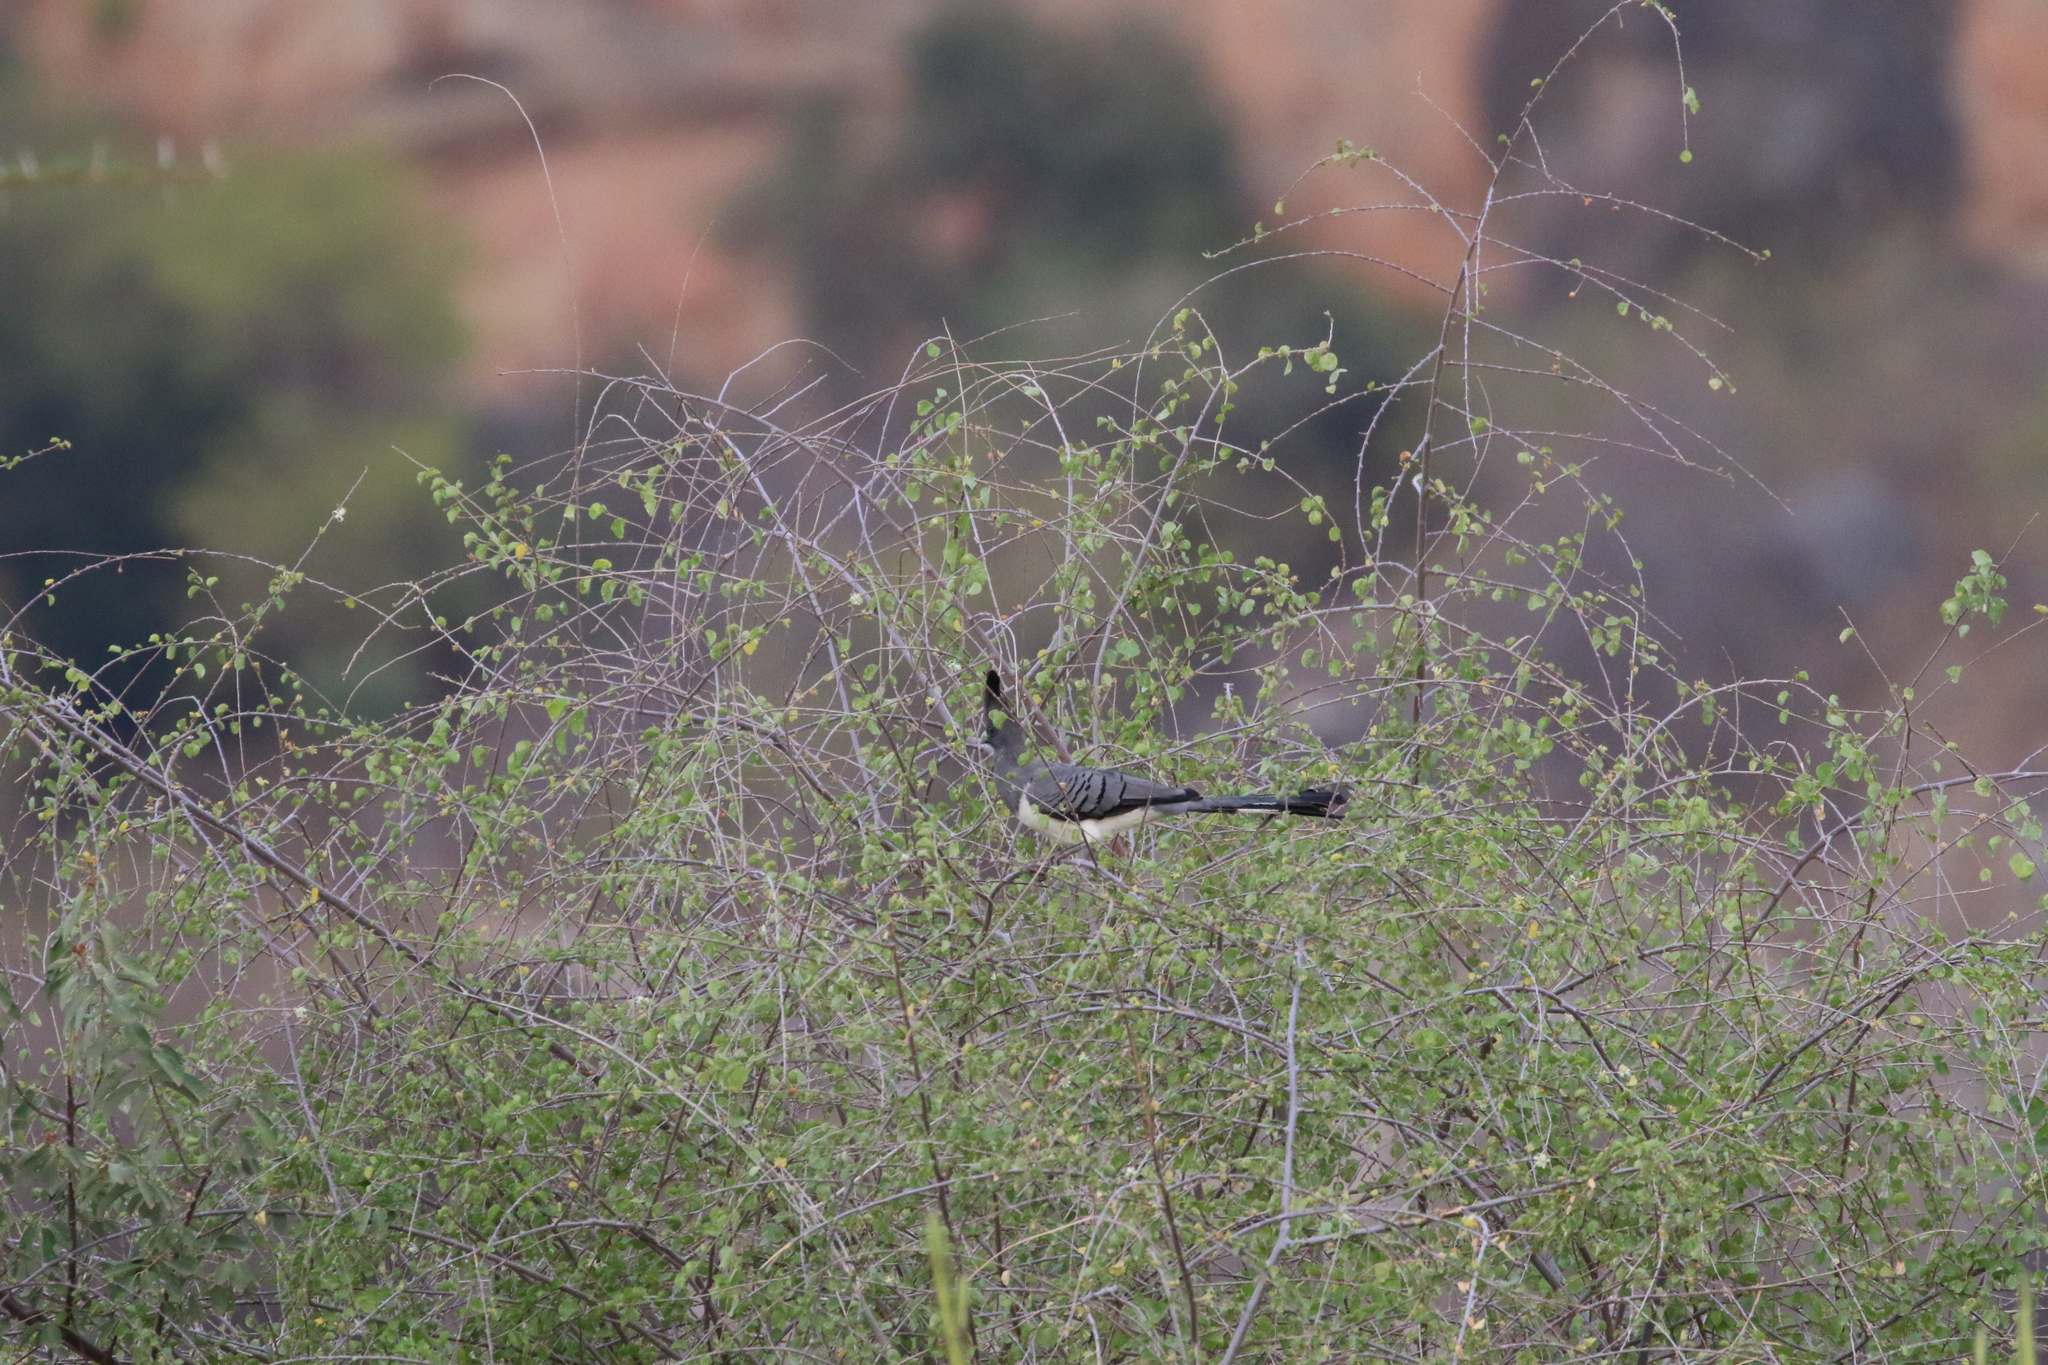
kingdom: Animalia
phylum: Chordata
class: Aves
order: Musophagiformes
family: Musophagidae
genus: Corythaixoides
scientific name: Corythaixoides leucogaster
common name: White-bellied go-away-bird
